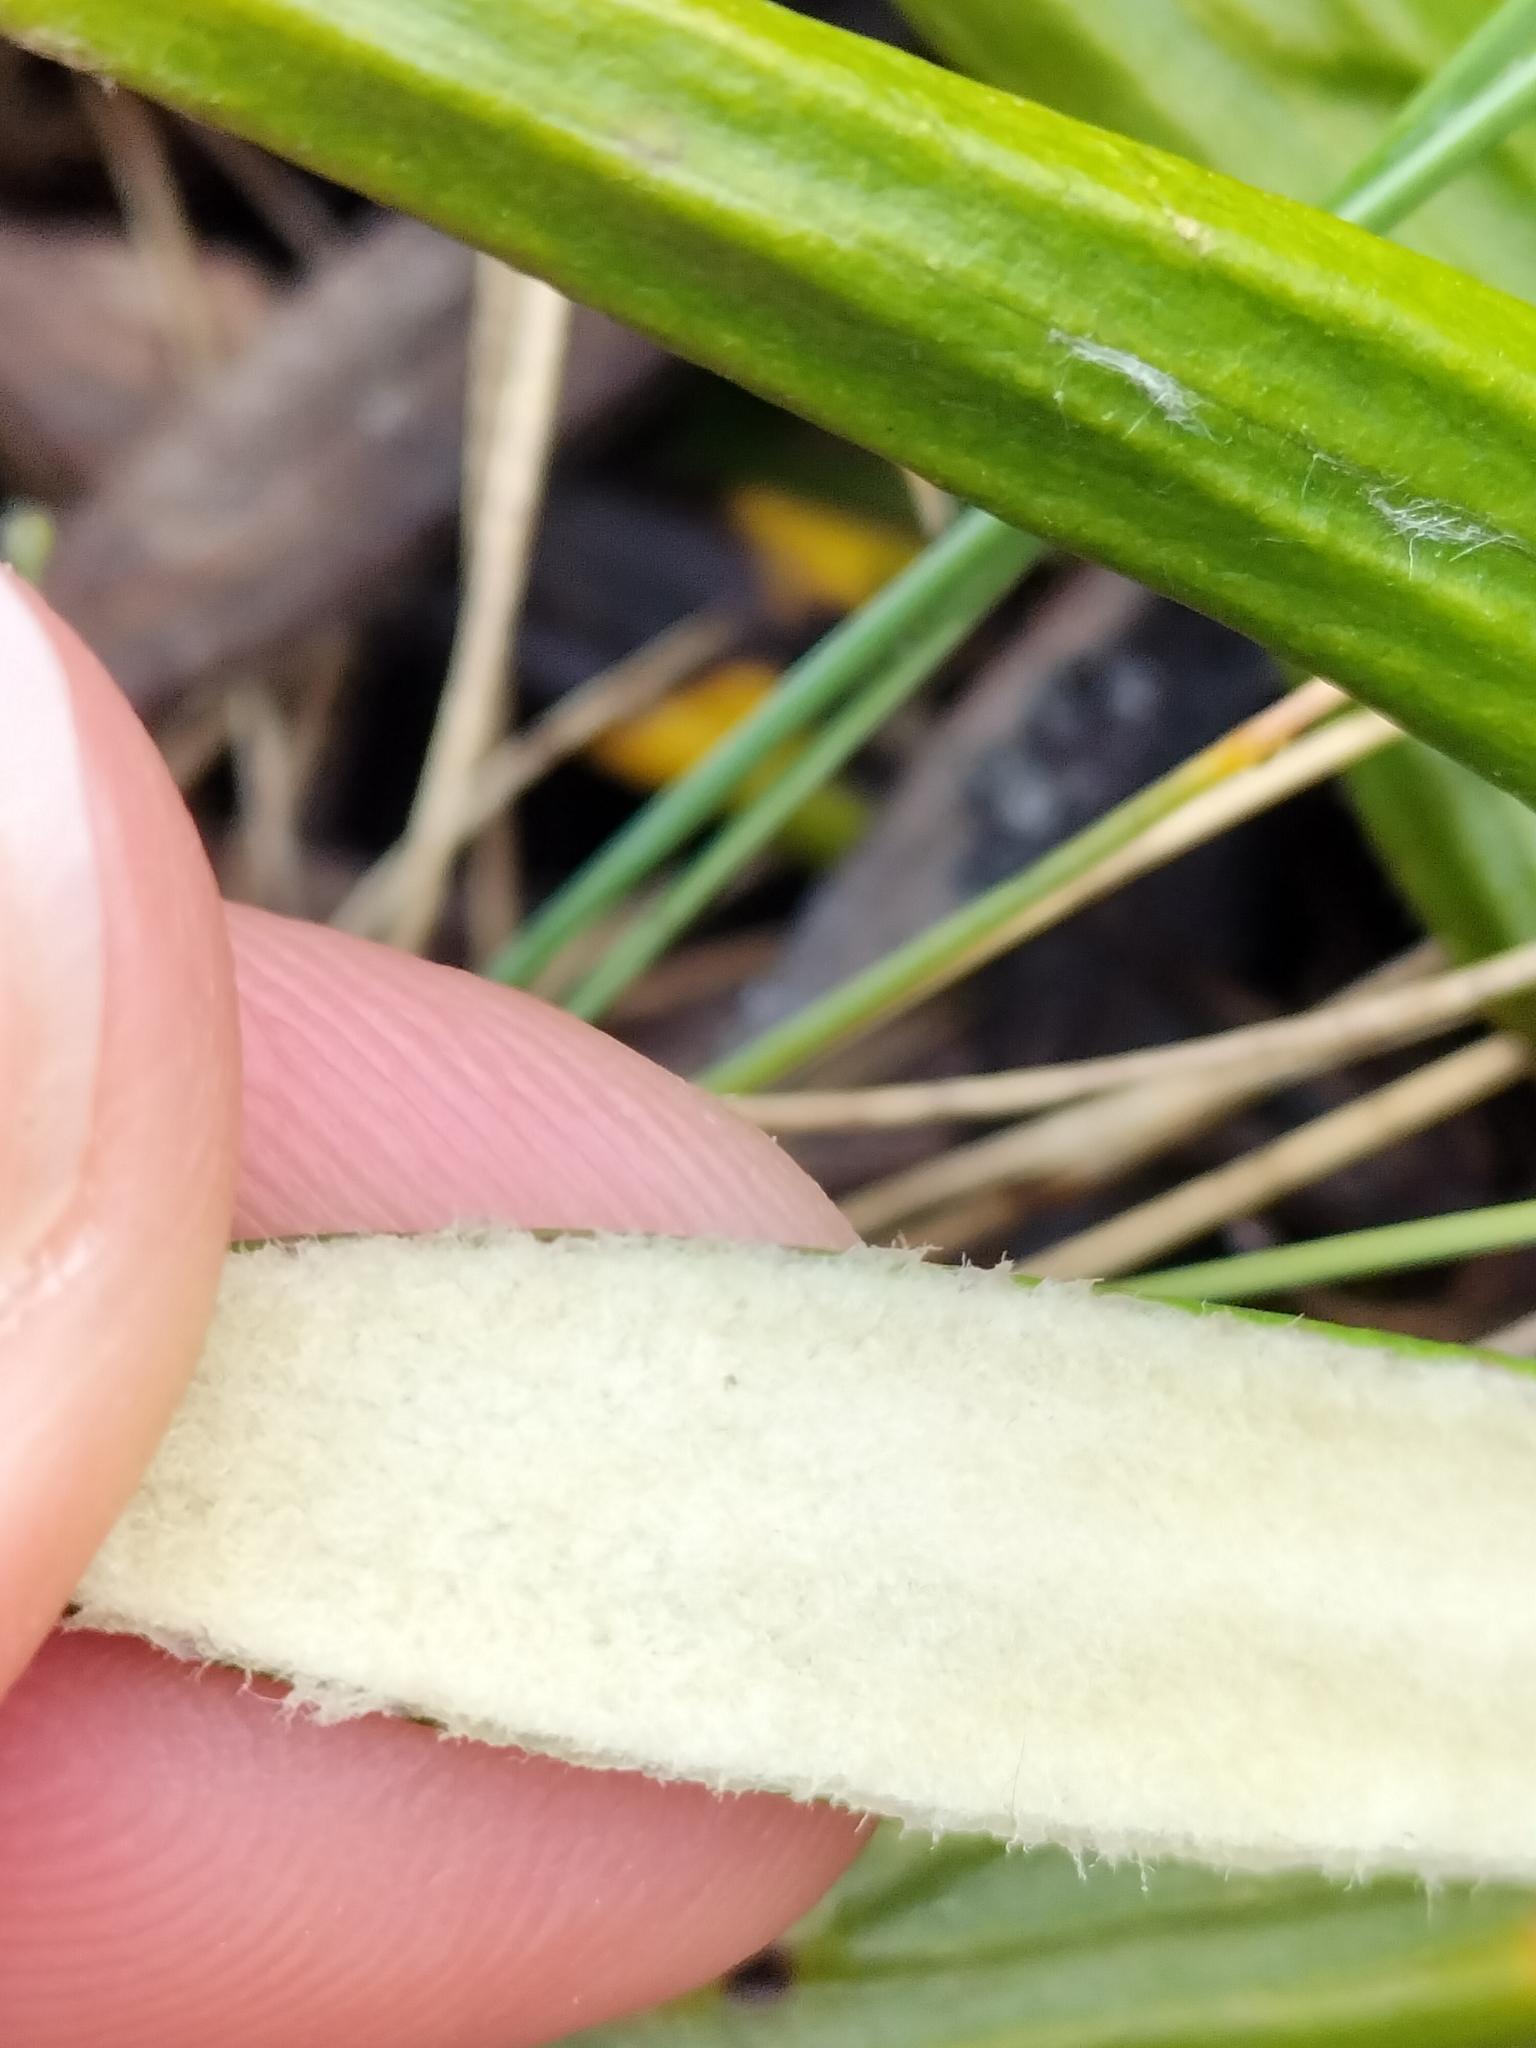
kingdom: Plantae
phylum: Tracheophyta
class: Magnoliopsida
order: Asterales
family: Asteraceae
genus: Celmisia
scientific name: Celmisia spectabilis
